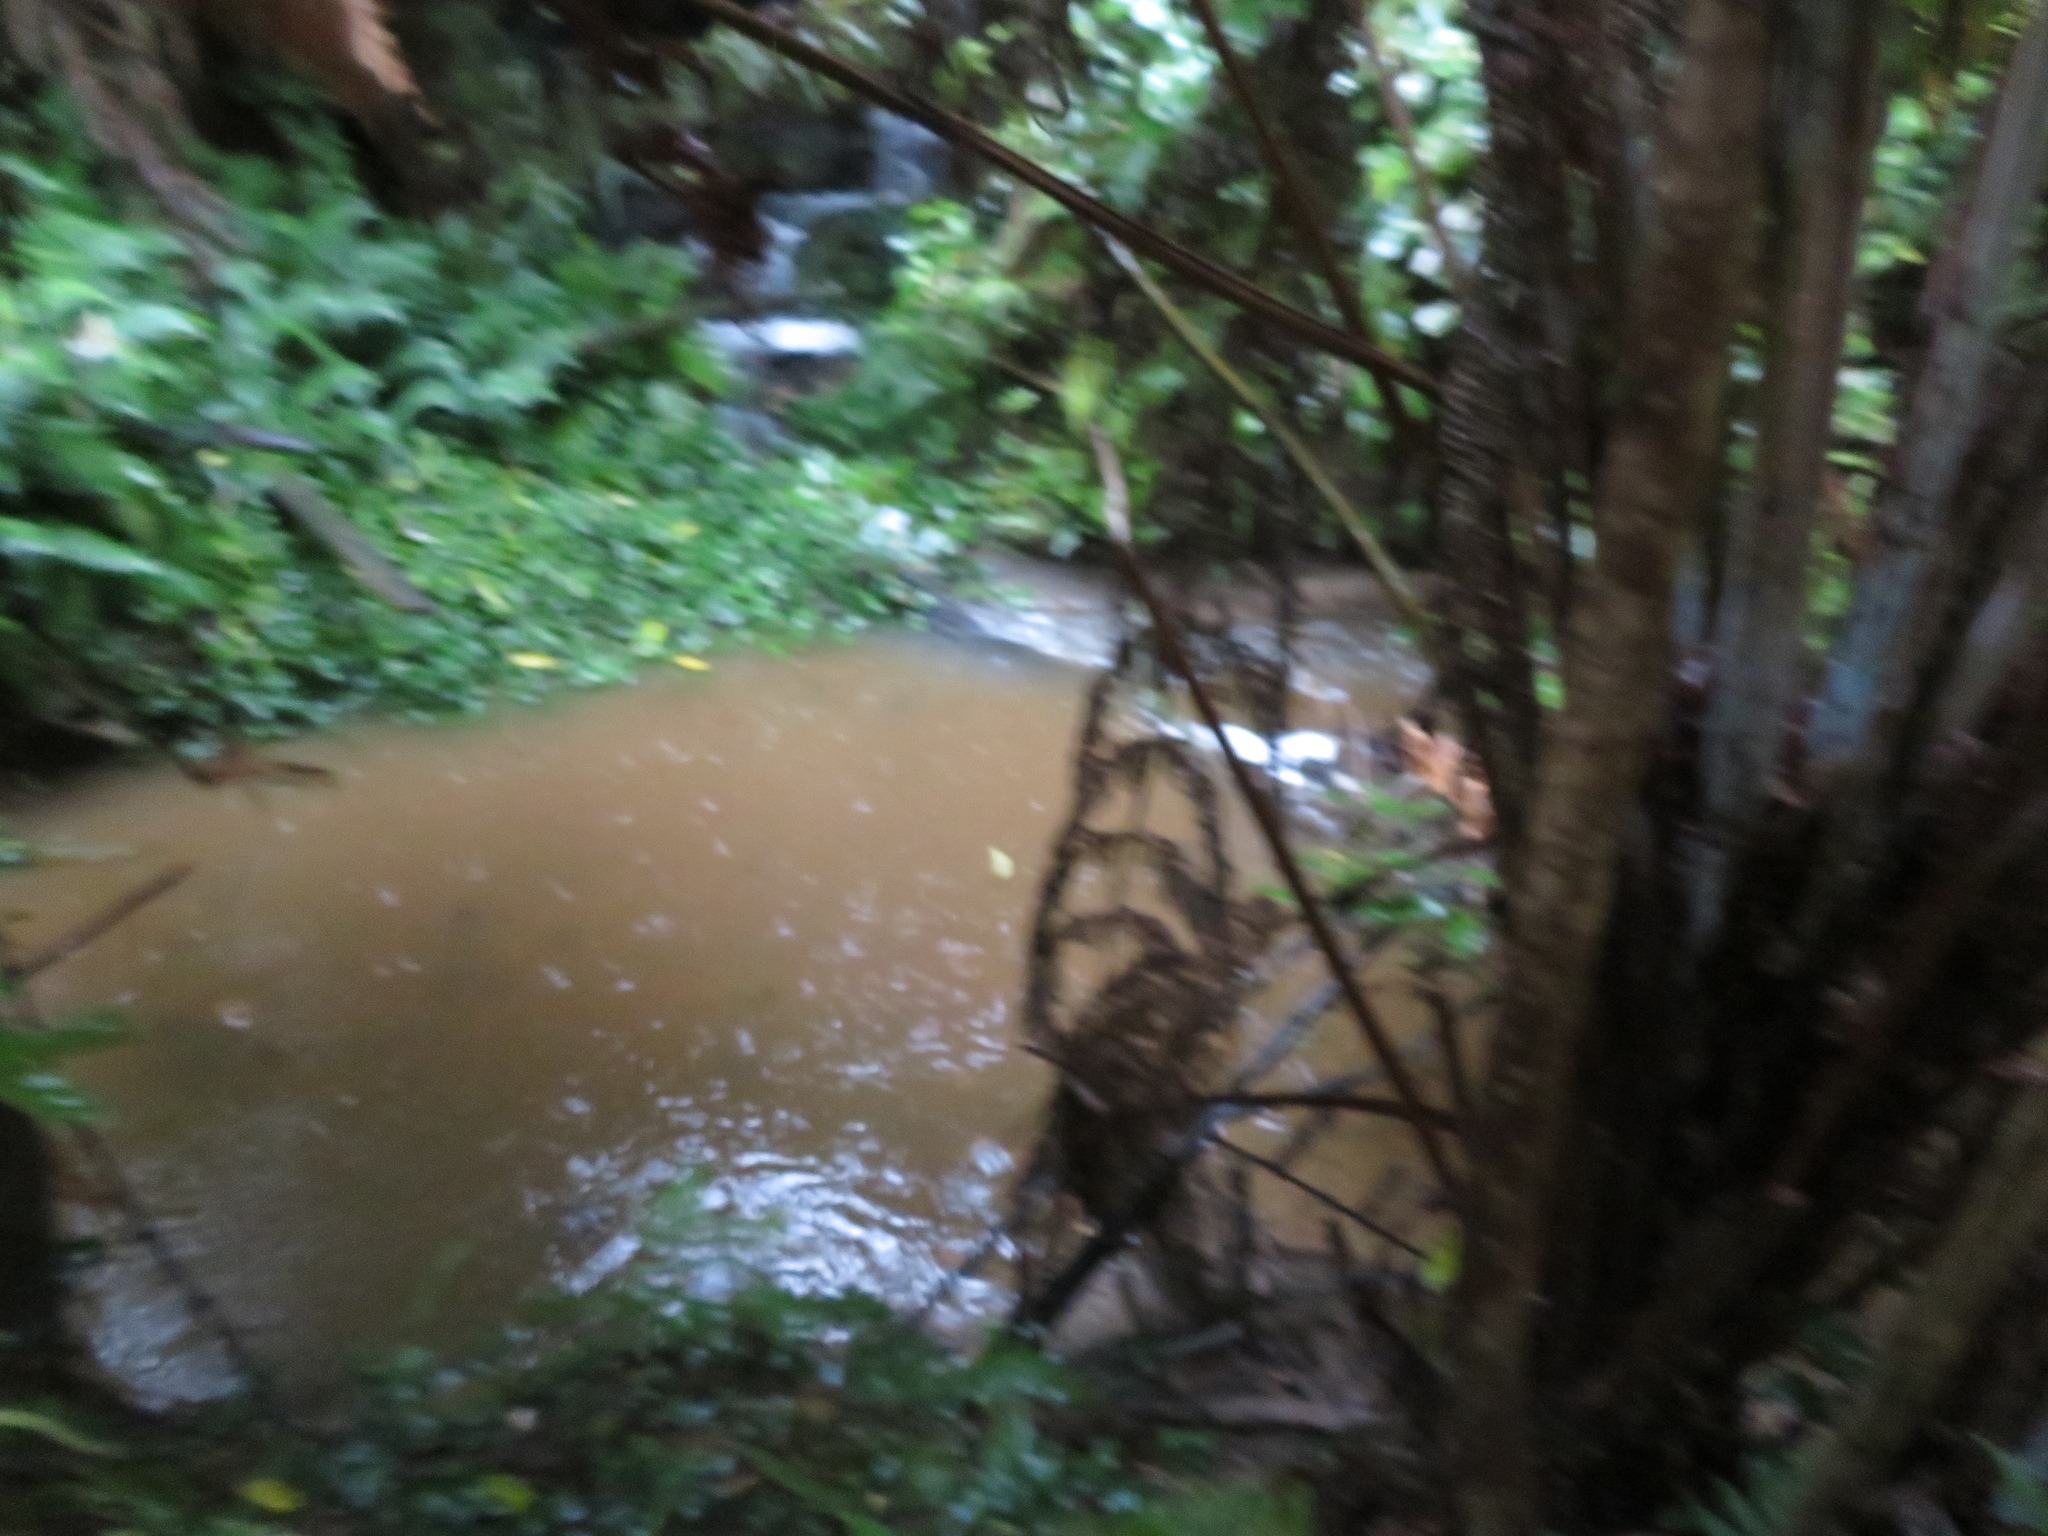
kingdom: Plantae
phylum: Tracheophyta
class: Liliopsida
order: Commelinales
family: Commelinaceae
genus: Tradescantia
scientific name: Tradescantia fluminensis
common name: Wandering-jew
